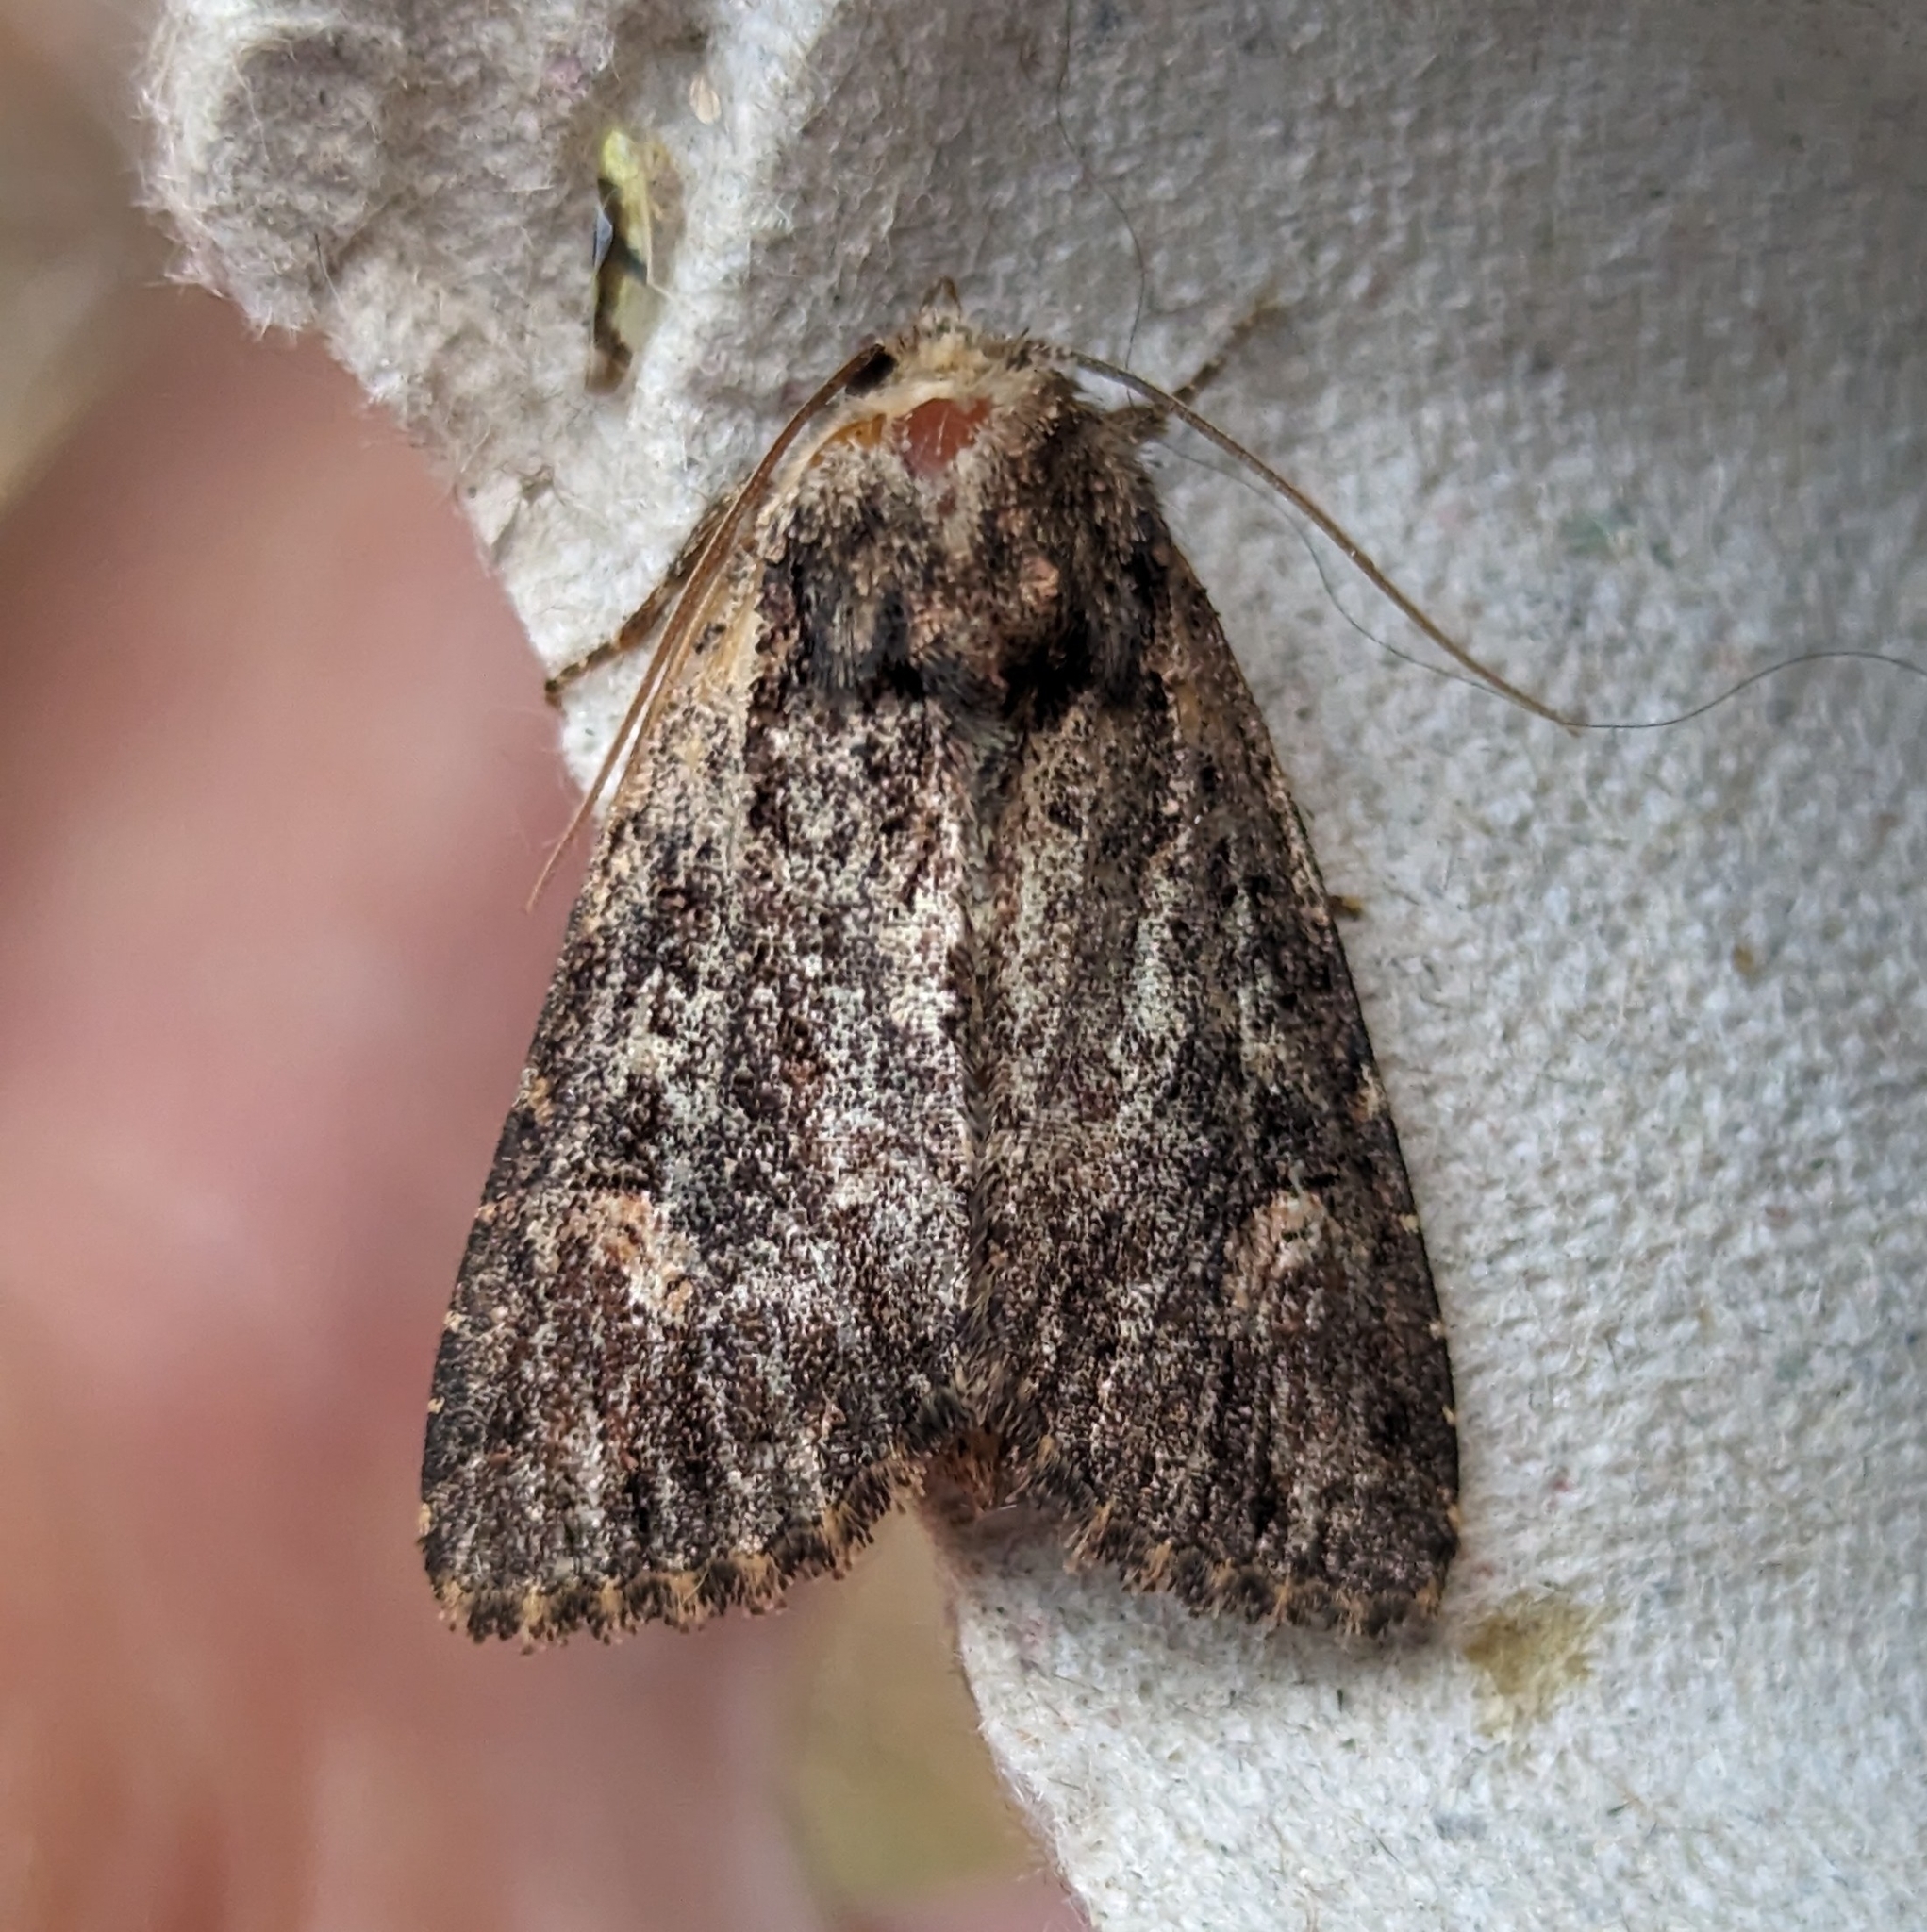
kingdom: Animalia
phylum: Arthropoda
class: Insecta
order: Lepidoptera
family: Noctuidae
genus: Aseptis
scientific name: Aseptis binotata
